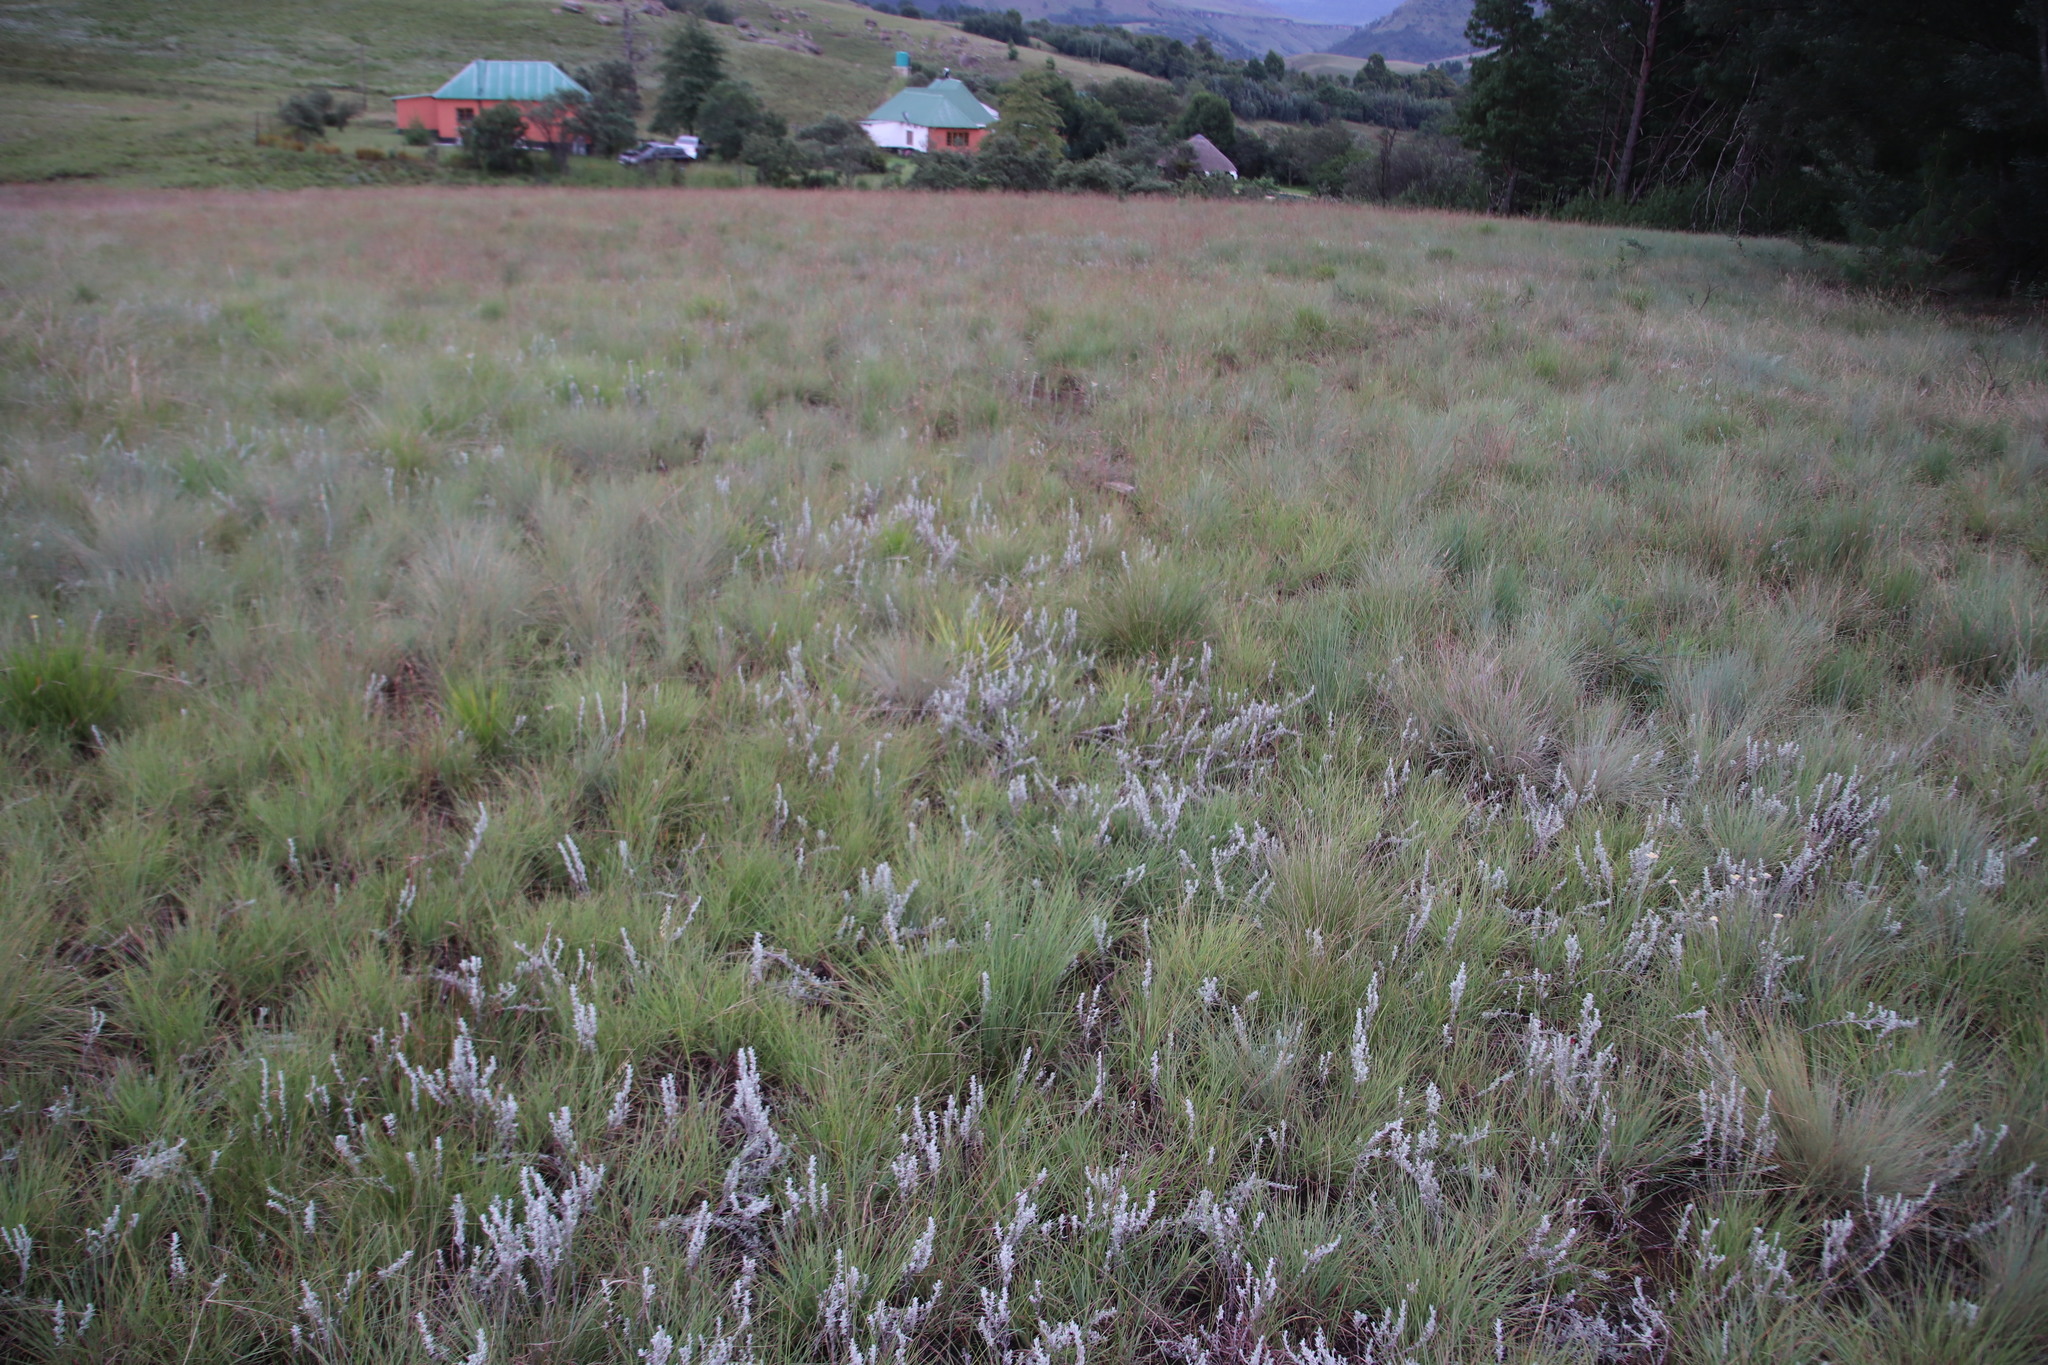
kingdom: Plantae
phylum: Tracheophyta
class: Magnoliopsida
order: Asterales
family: Asteraceae
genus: Helichrysum
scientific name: Helichrysum aureonitens
